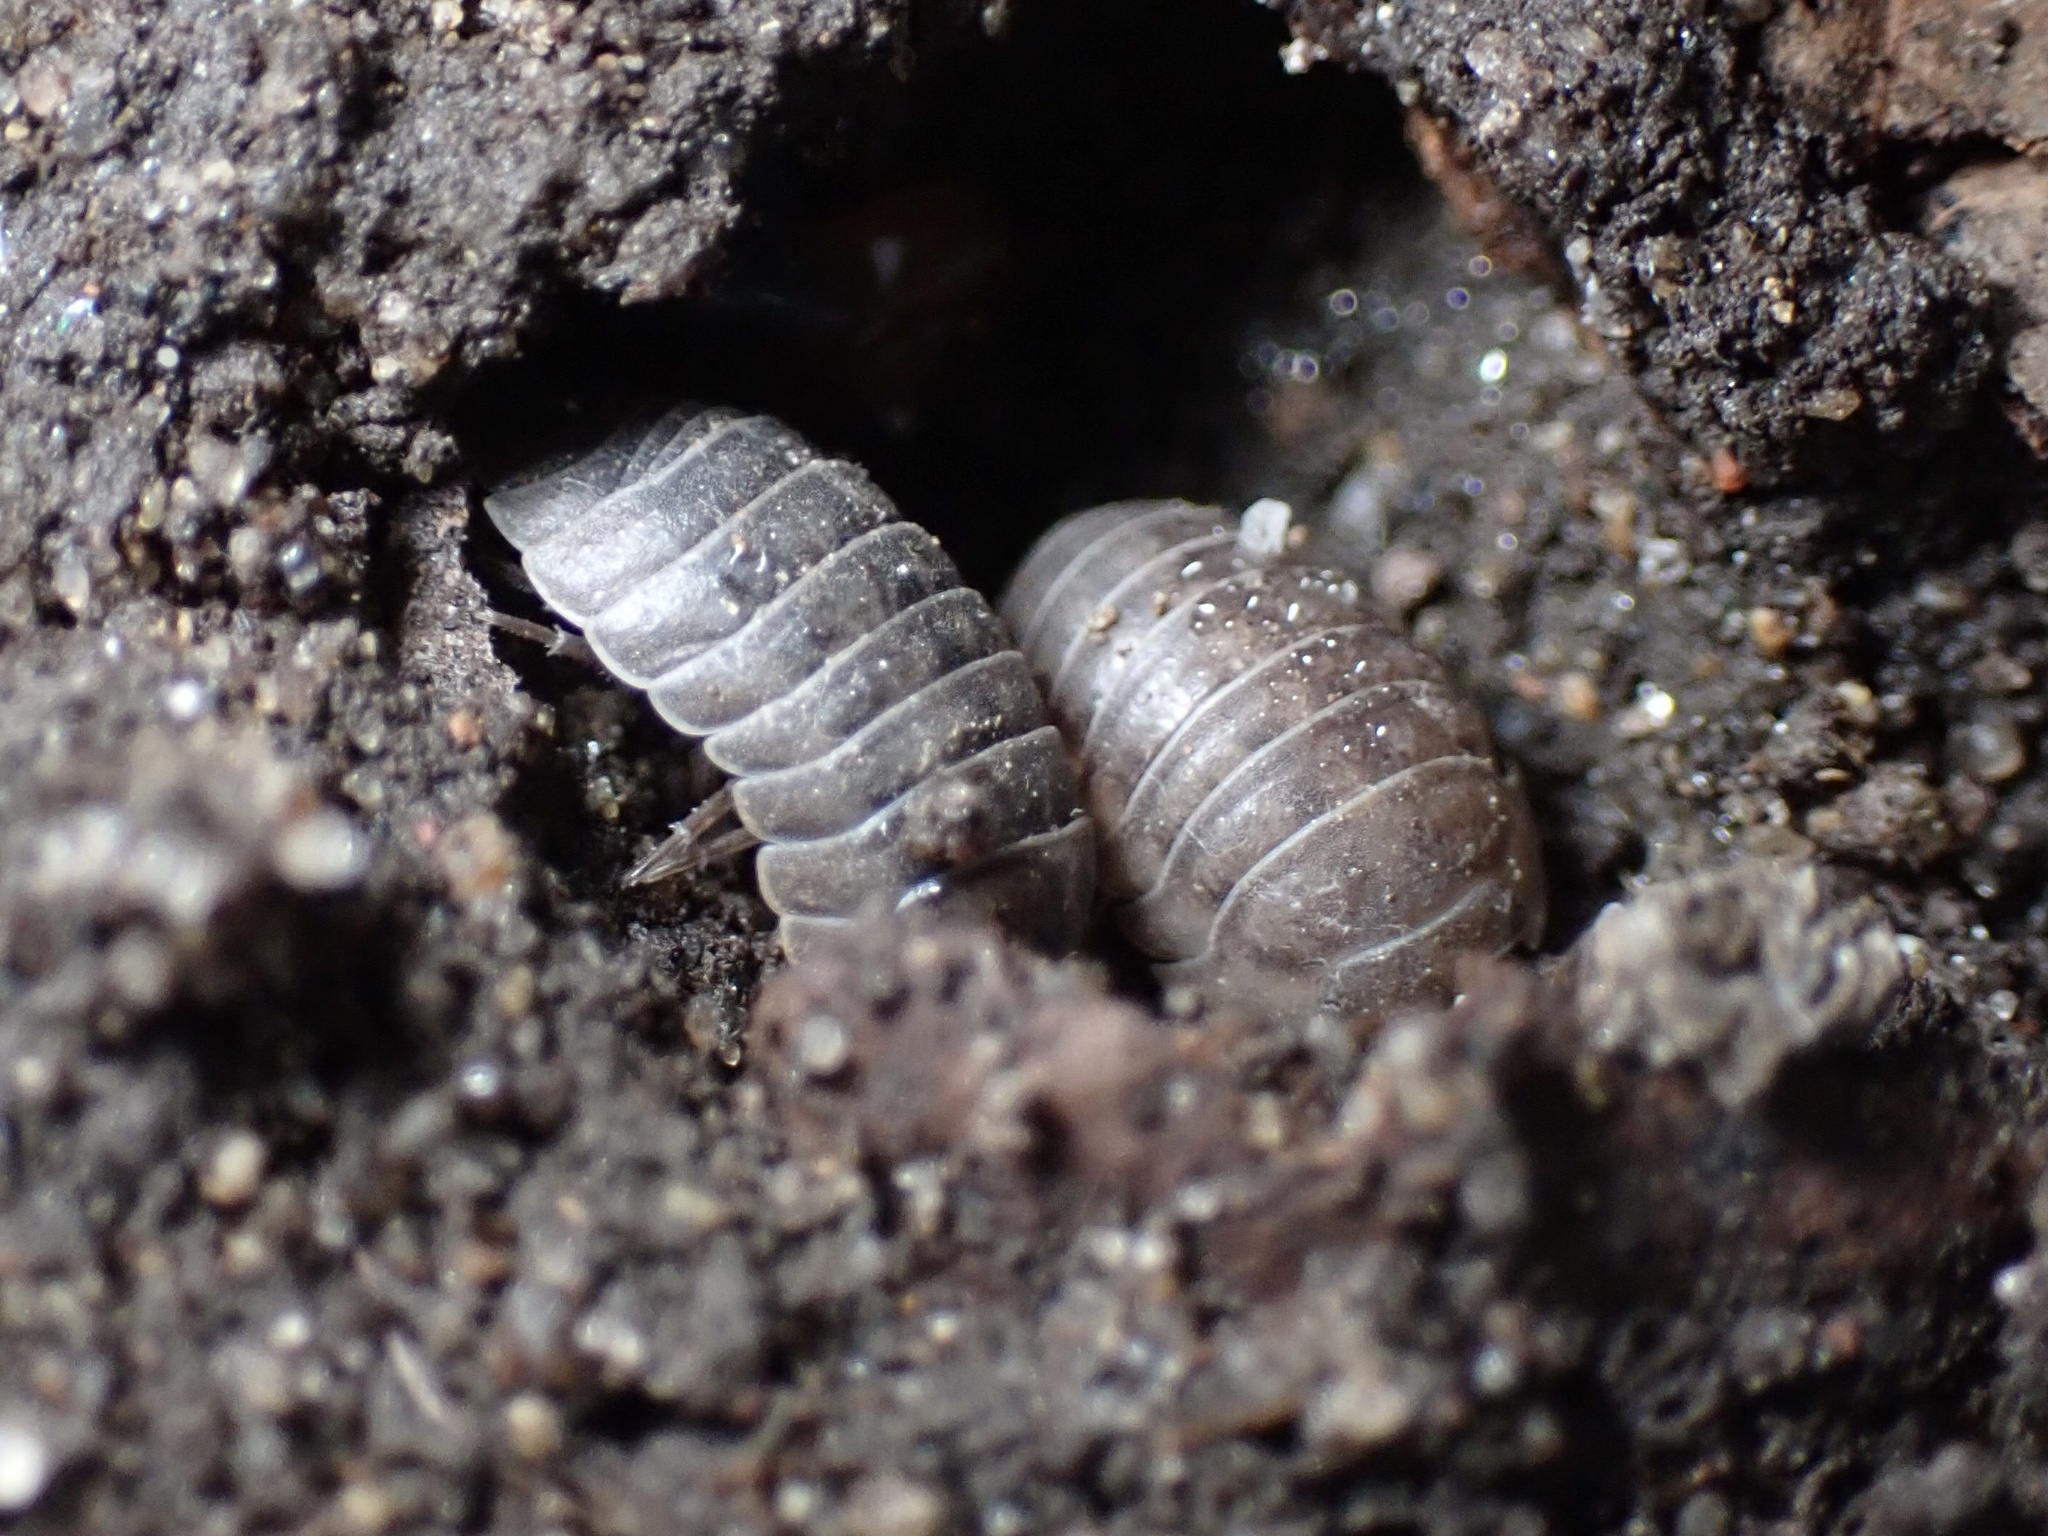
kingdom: Animalia
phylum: Arthropoda
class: Malacostraca
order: Isopoda
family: Armadillidiidae
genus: Armadillidium
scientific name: Armadillidium nasatum
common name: Isopod
